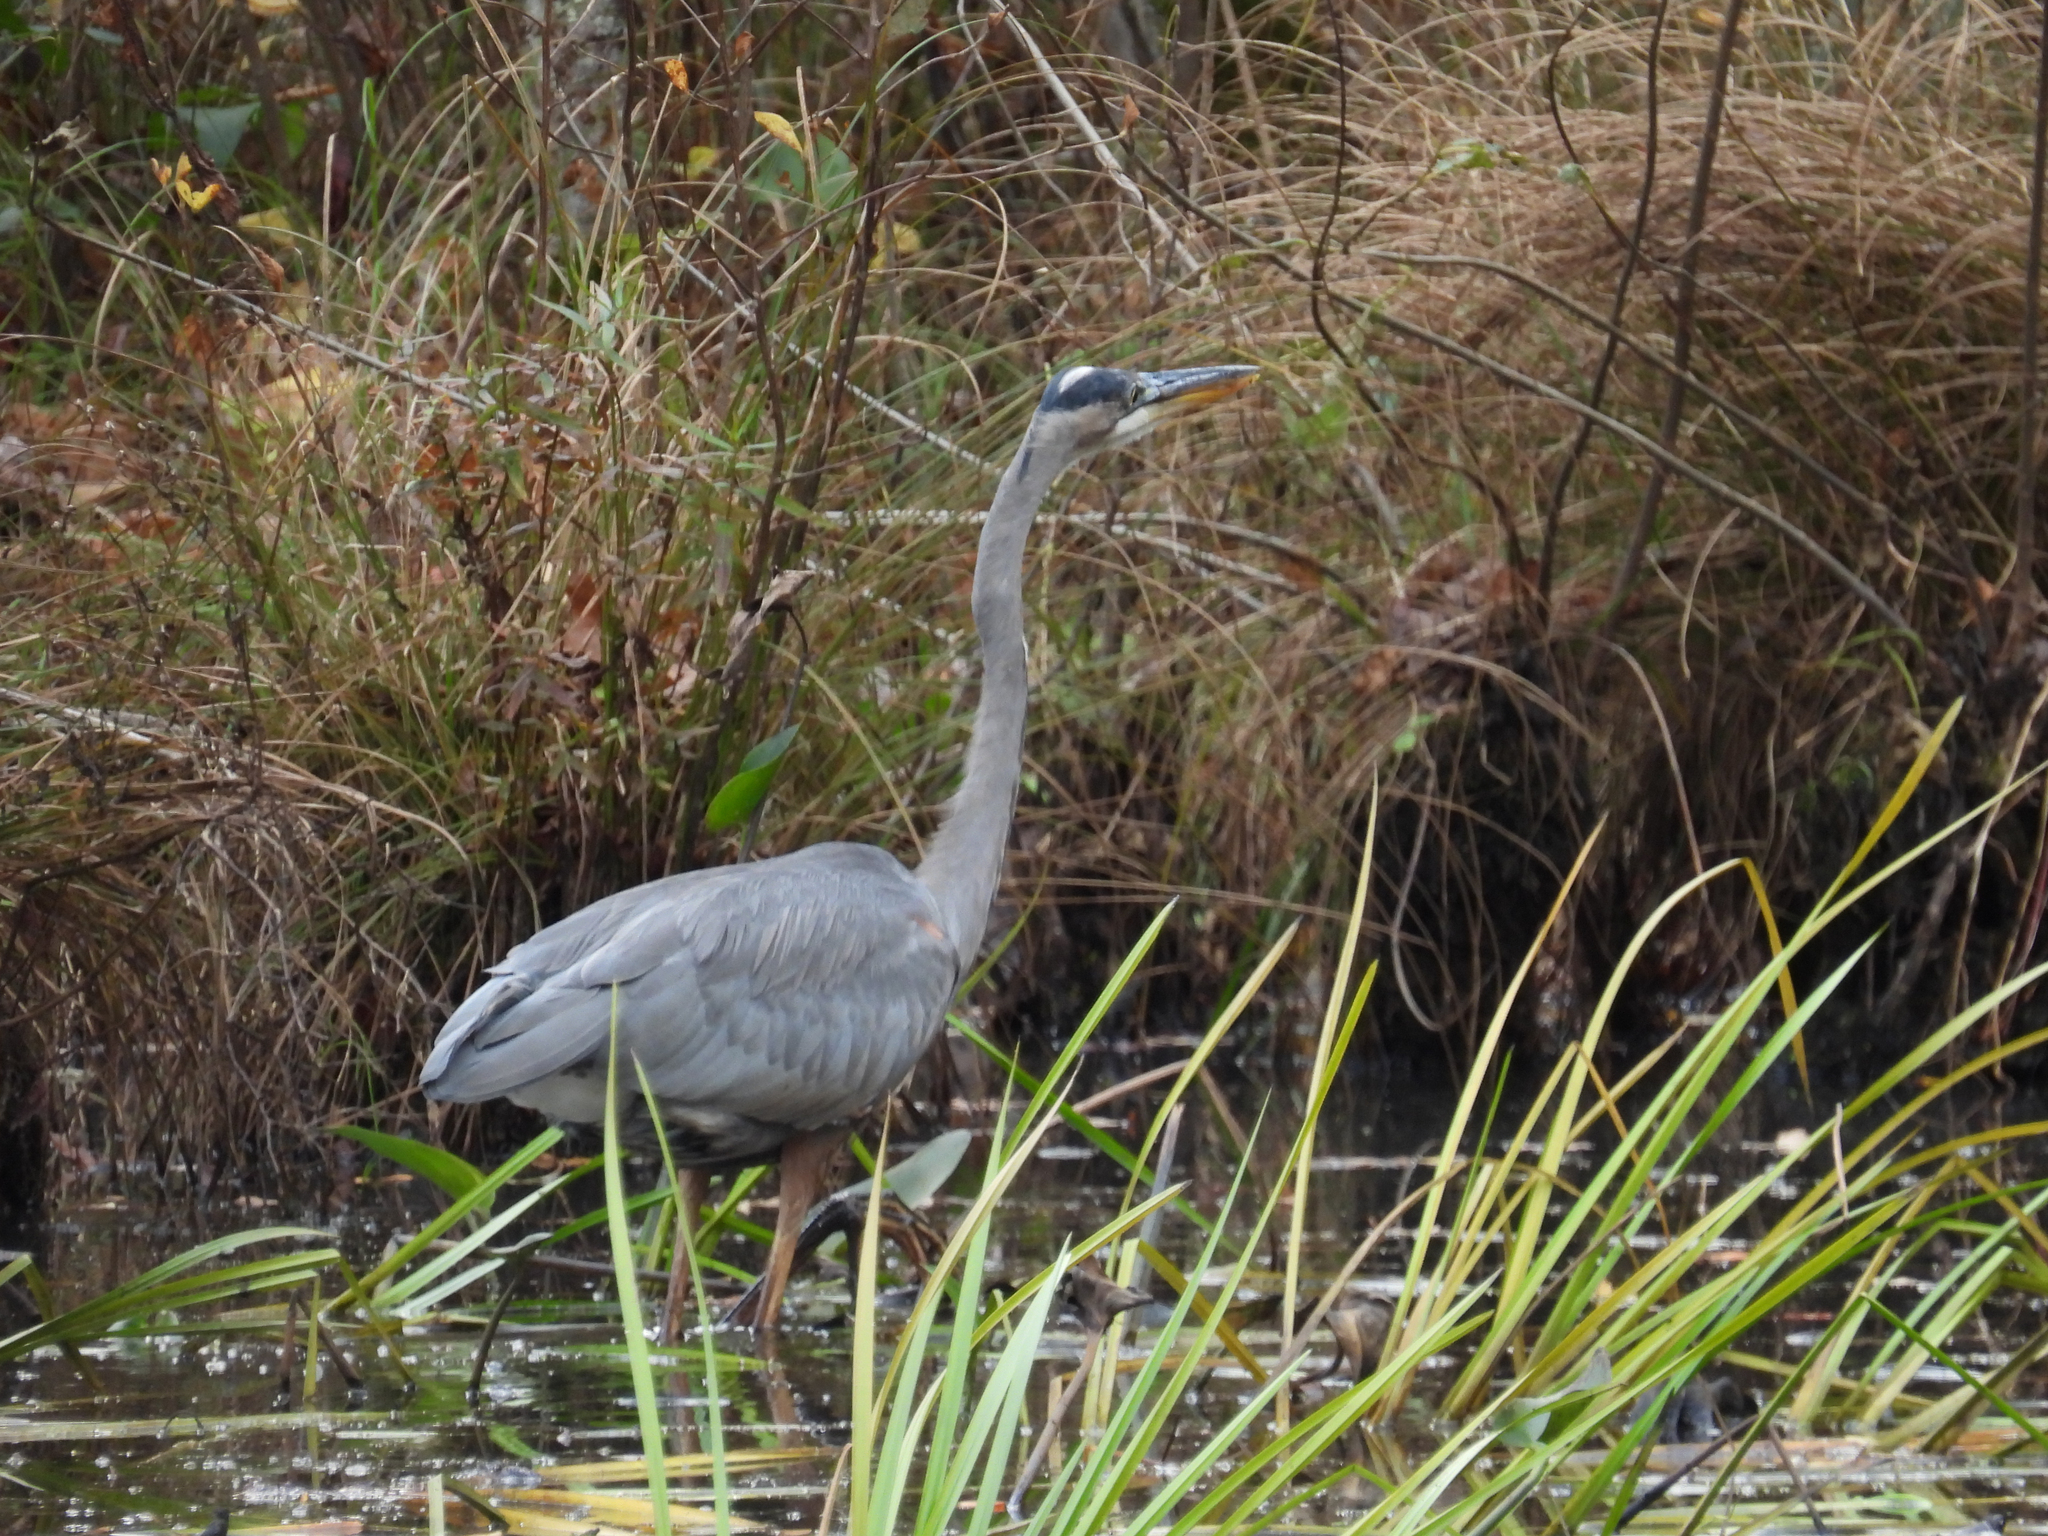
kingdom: Animalia
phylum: Chordata
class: Aves
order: Pelecaniformes
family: Ardeidae
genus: Ardea
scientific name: Ardea herodias
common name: Great blue heron
